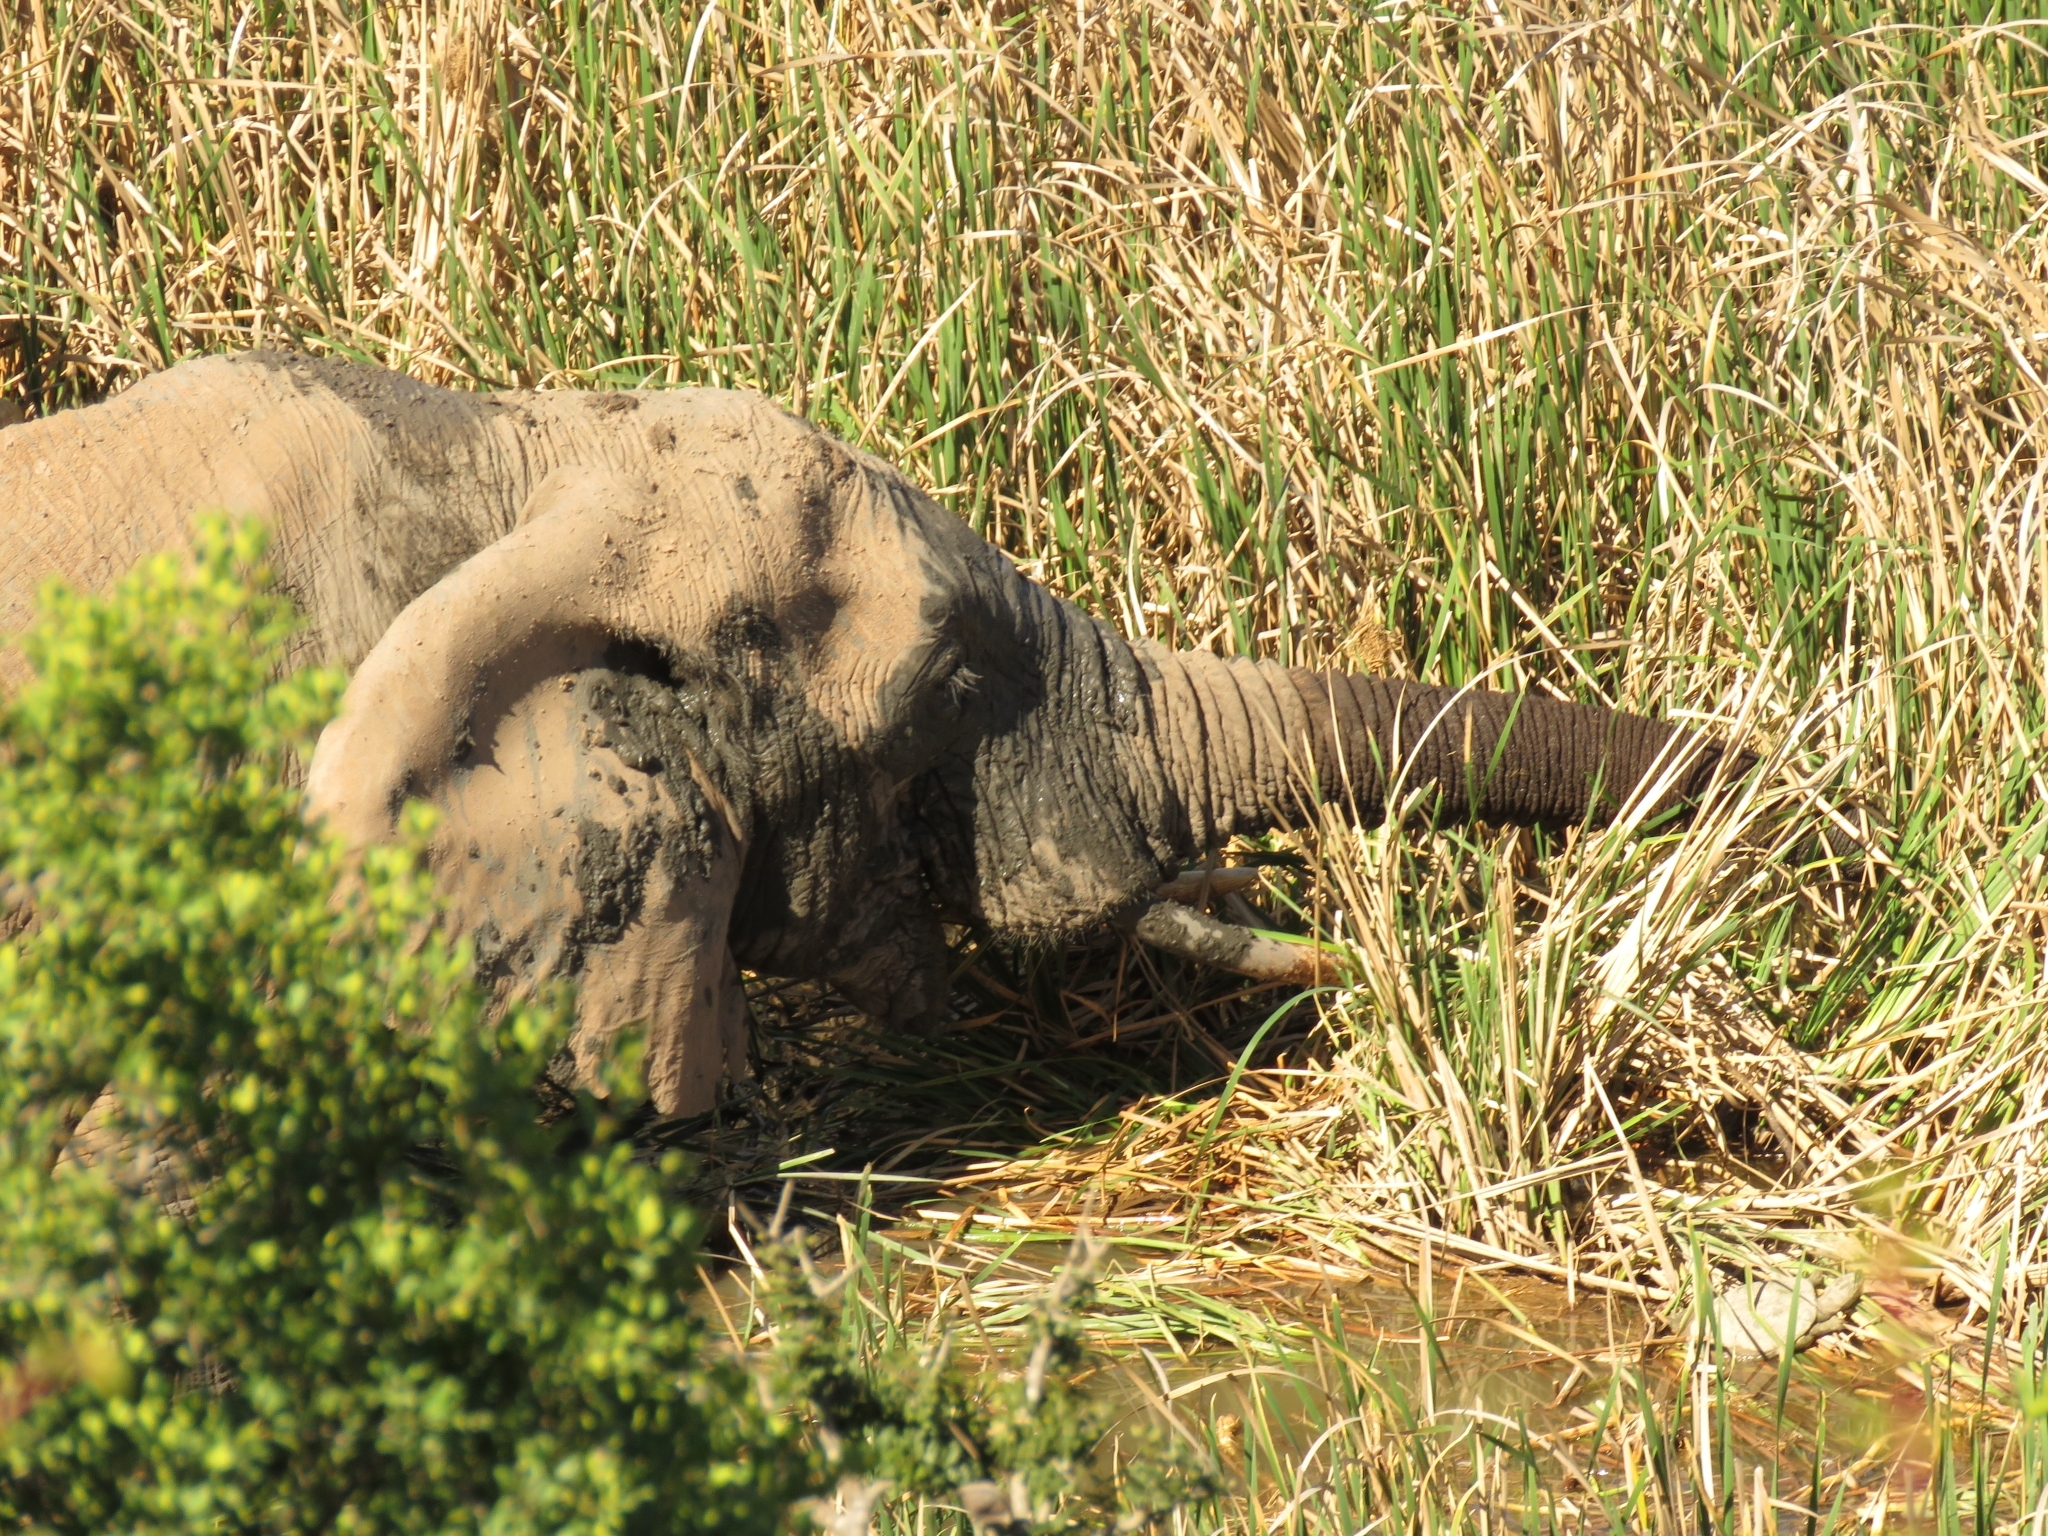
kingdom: Animalia
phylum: Chordata
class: Mammalia
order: Proboscidea
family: Elephantidae
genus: Loxodonta
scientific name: Loxodonta africana
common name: African elephant
